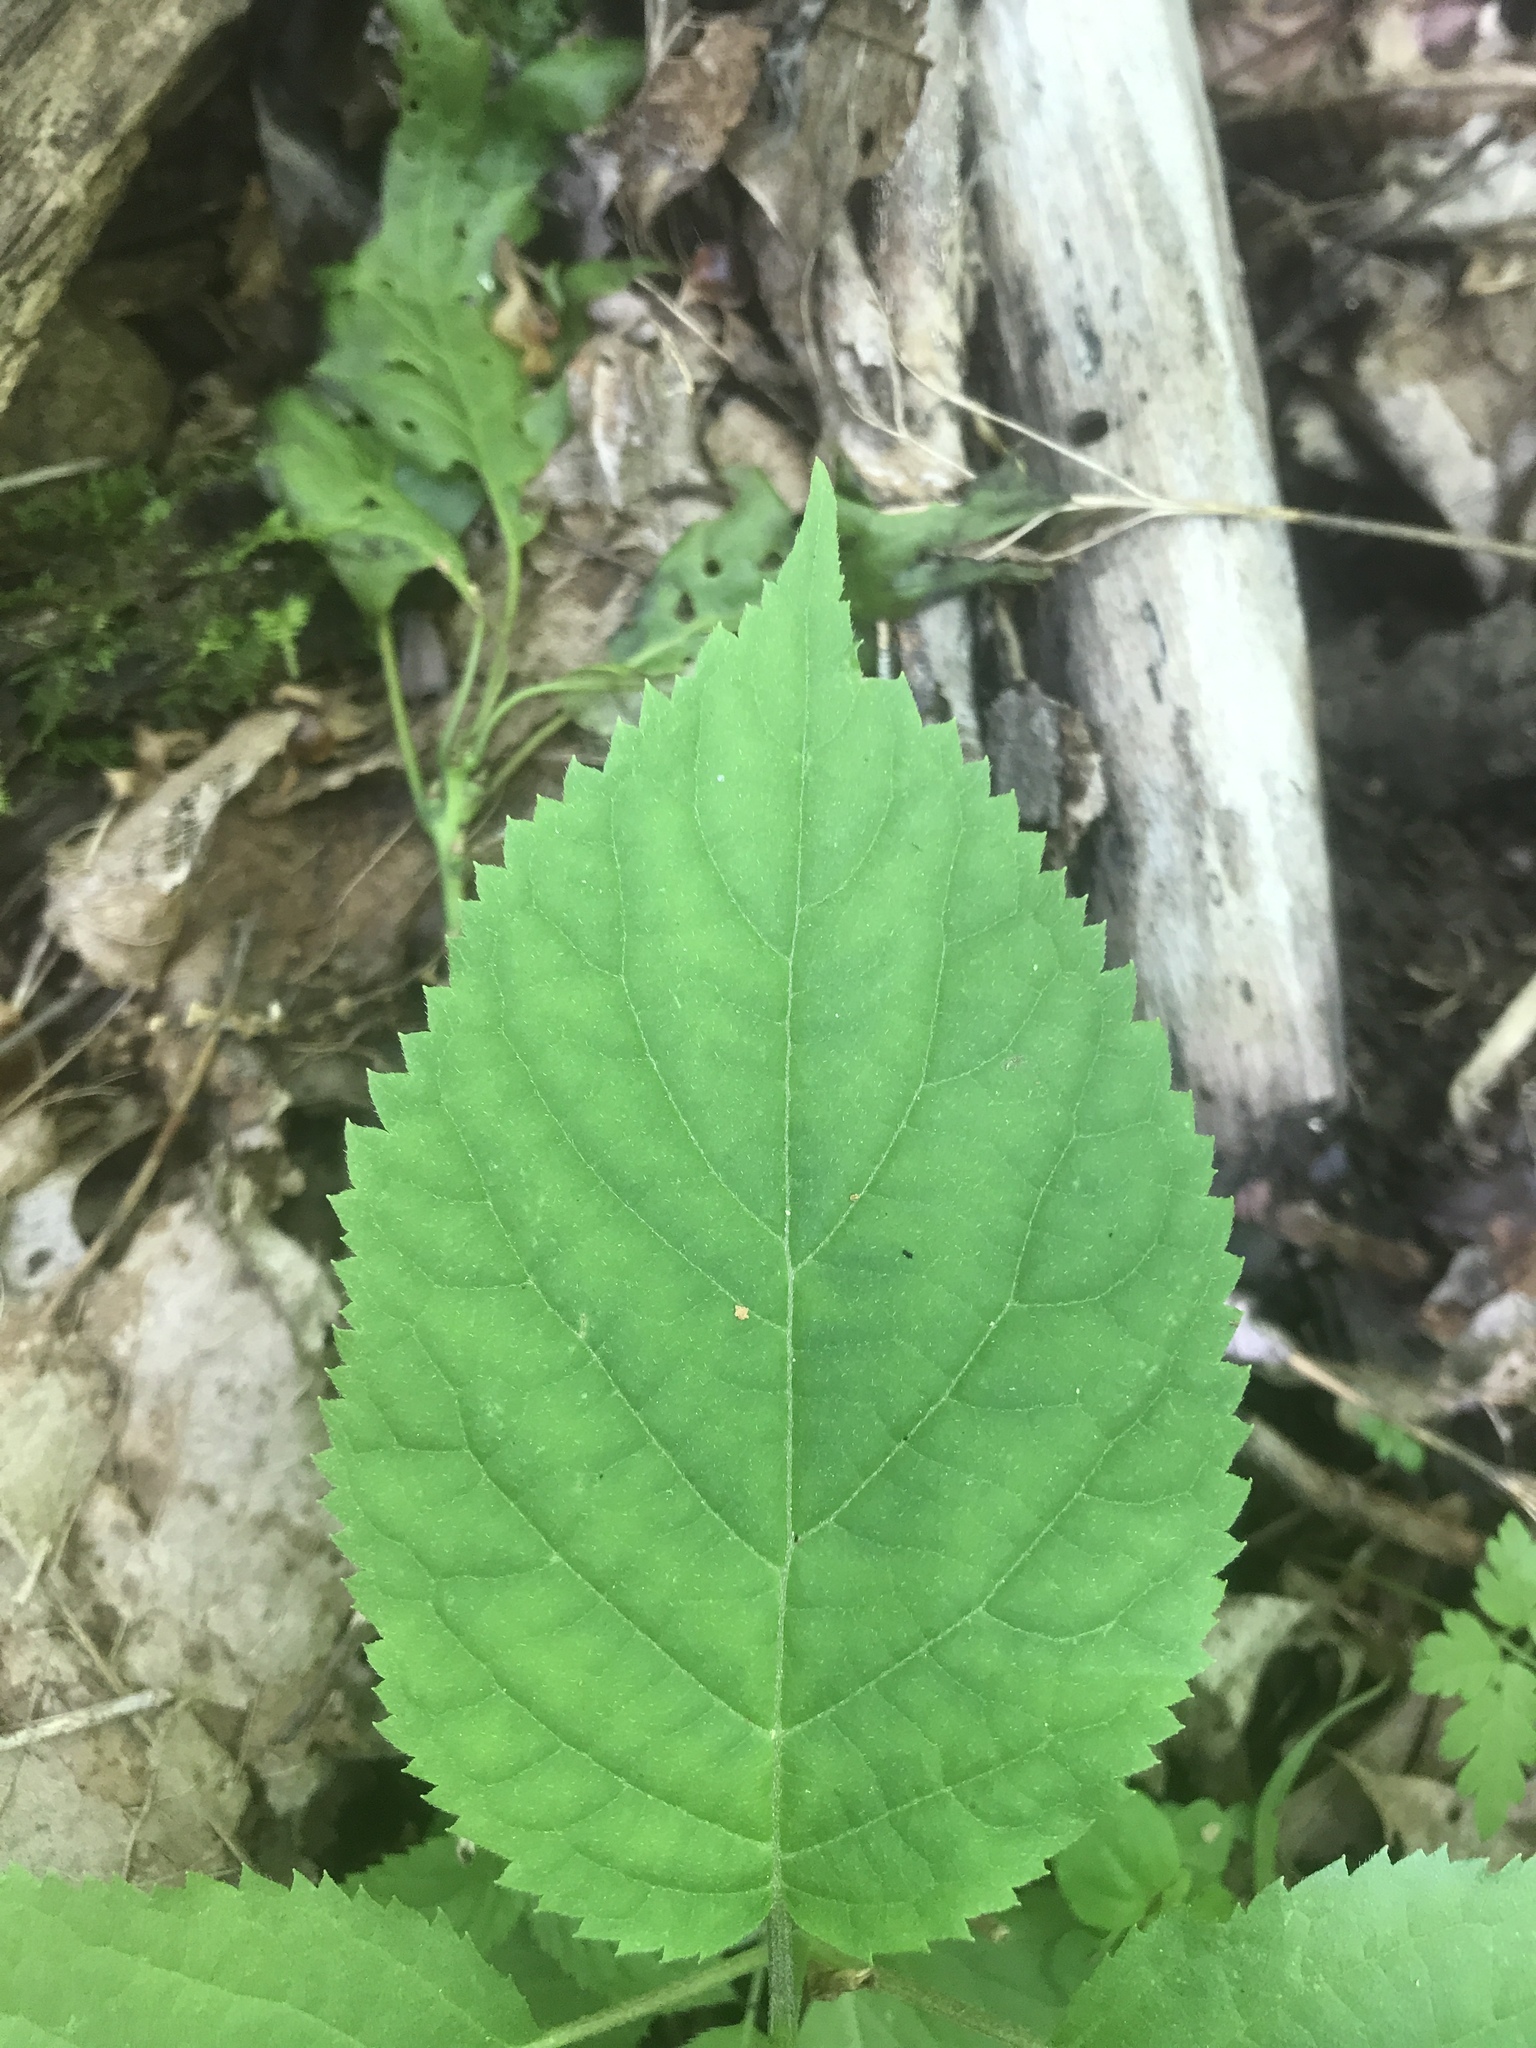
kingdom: Plantae
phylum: Tracheophyta
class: Magnoliopsida
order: Cornales
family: Hydrangeaceae
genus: Hydrangea
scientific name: Hydrangea arborescens
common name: Sevenbark
